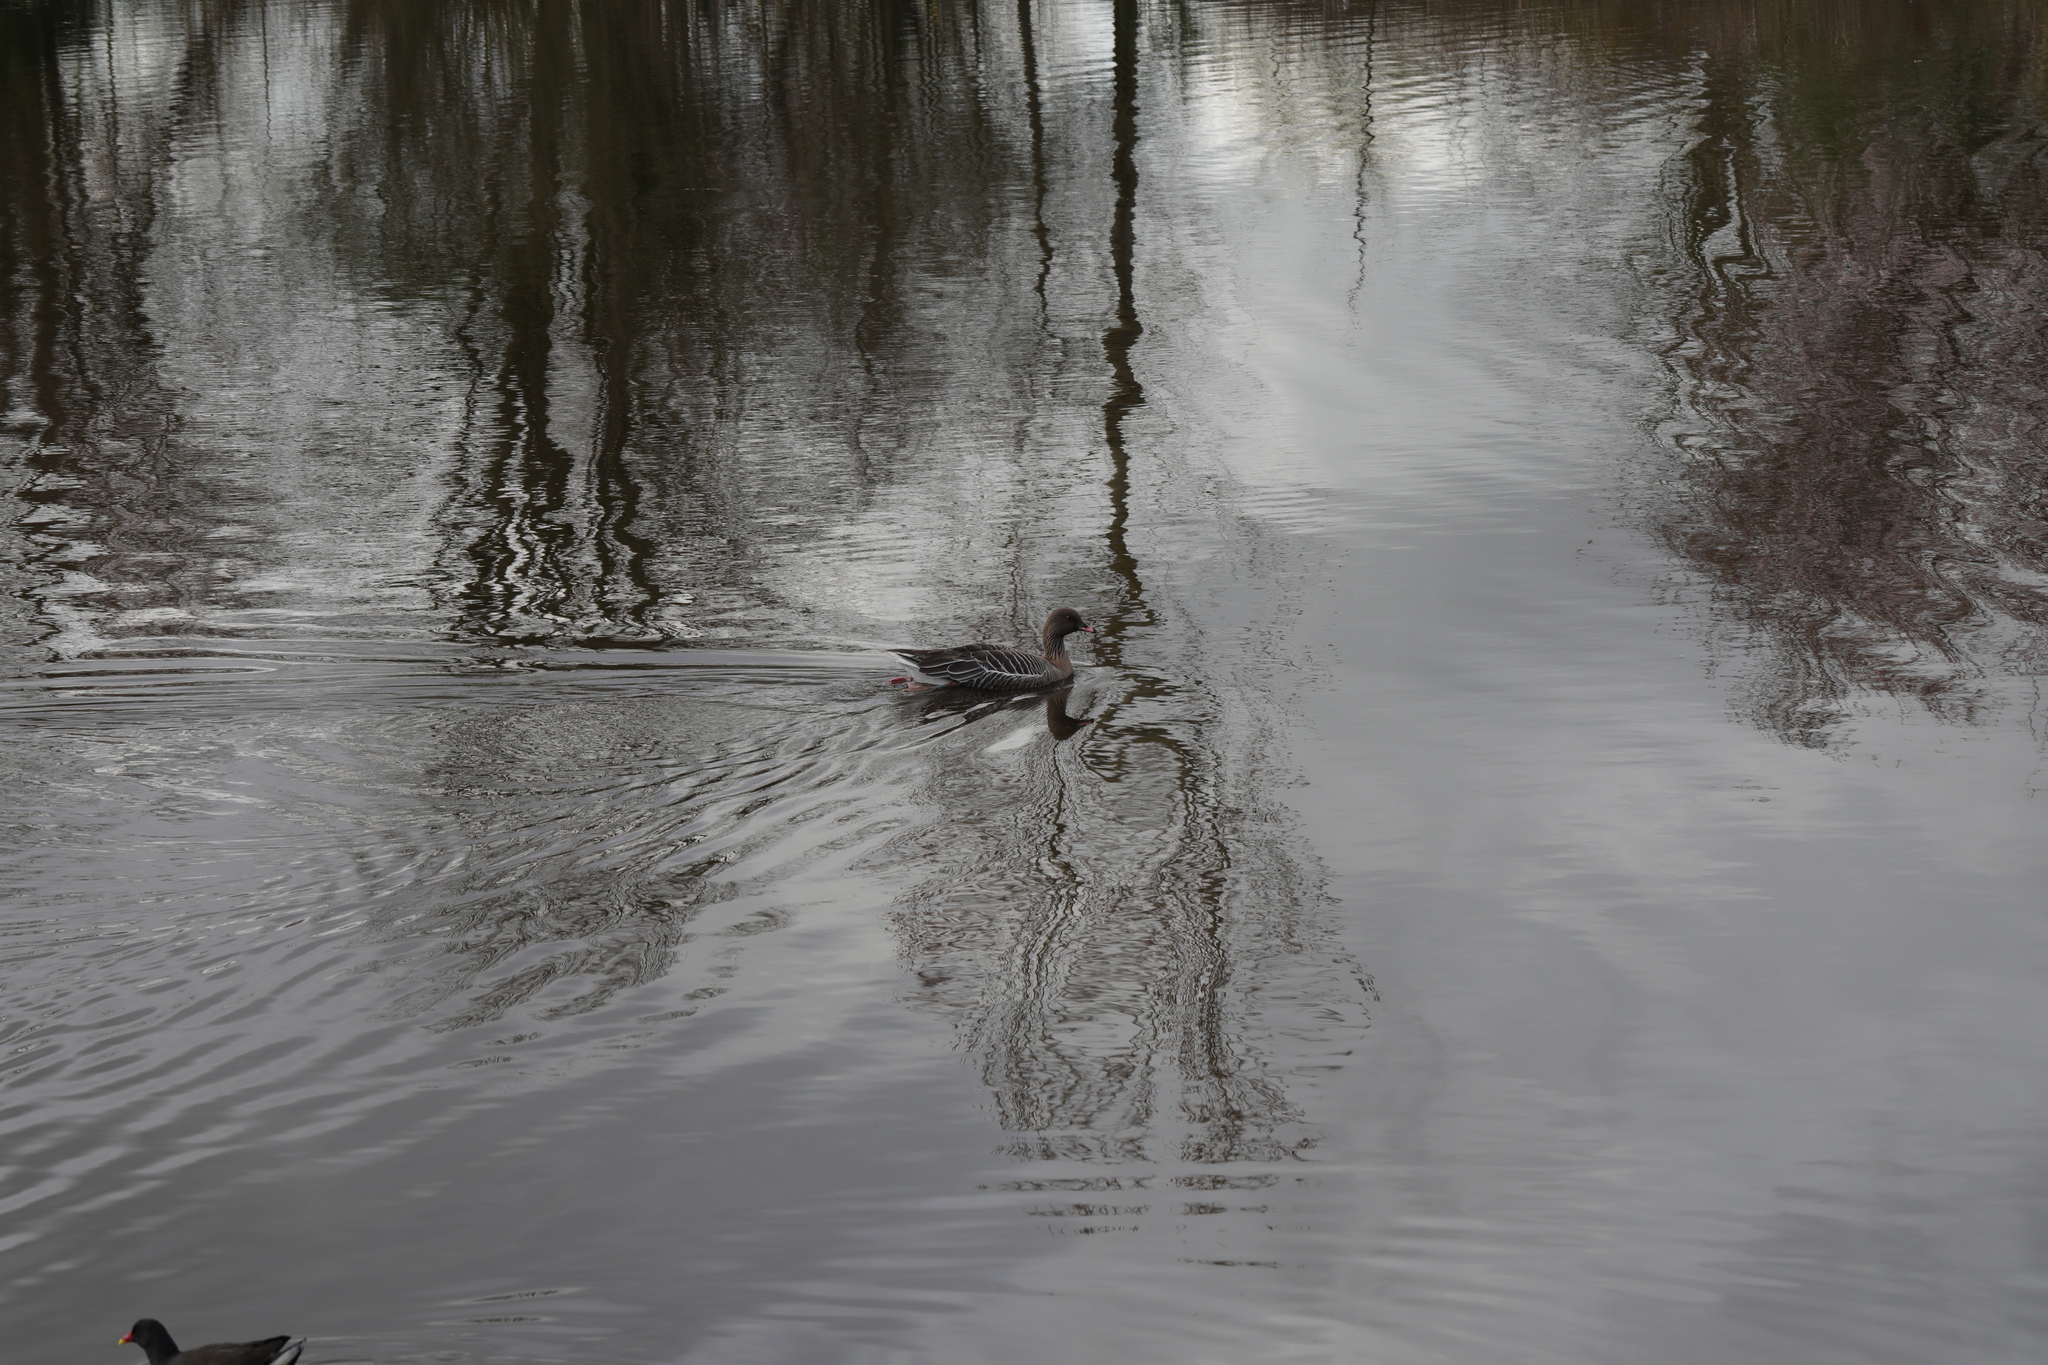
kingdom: Animalia
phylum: Chordata
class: Aves
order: Anseriformes
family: Anatidae
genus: Anser
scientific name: Anser brachyrhynchus
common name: Pink-footed goose
